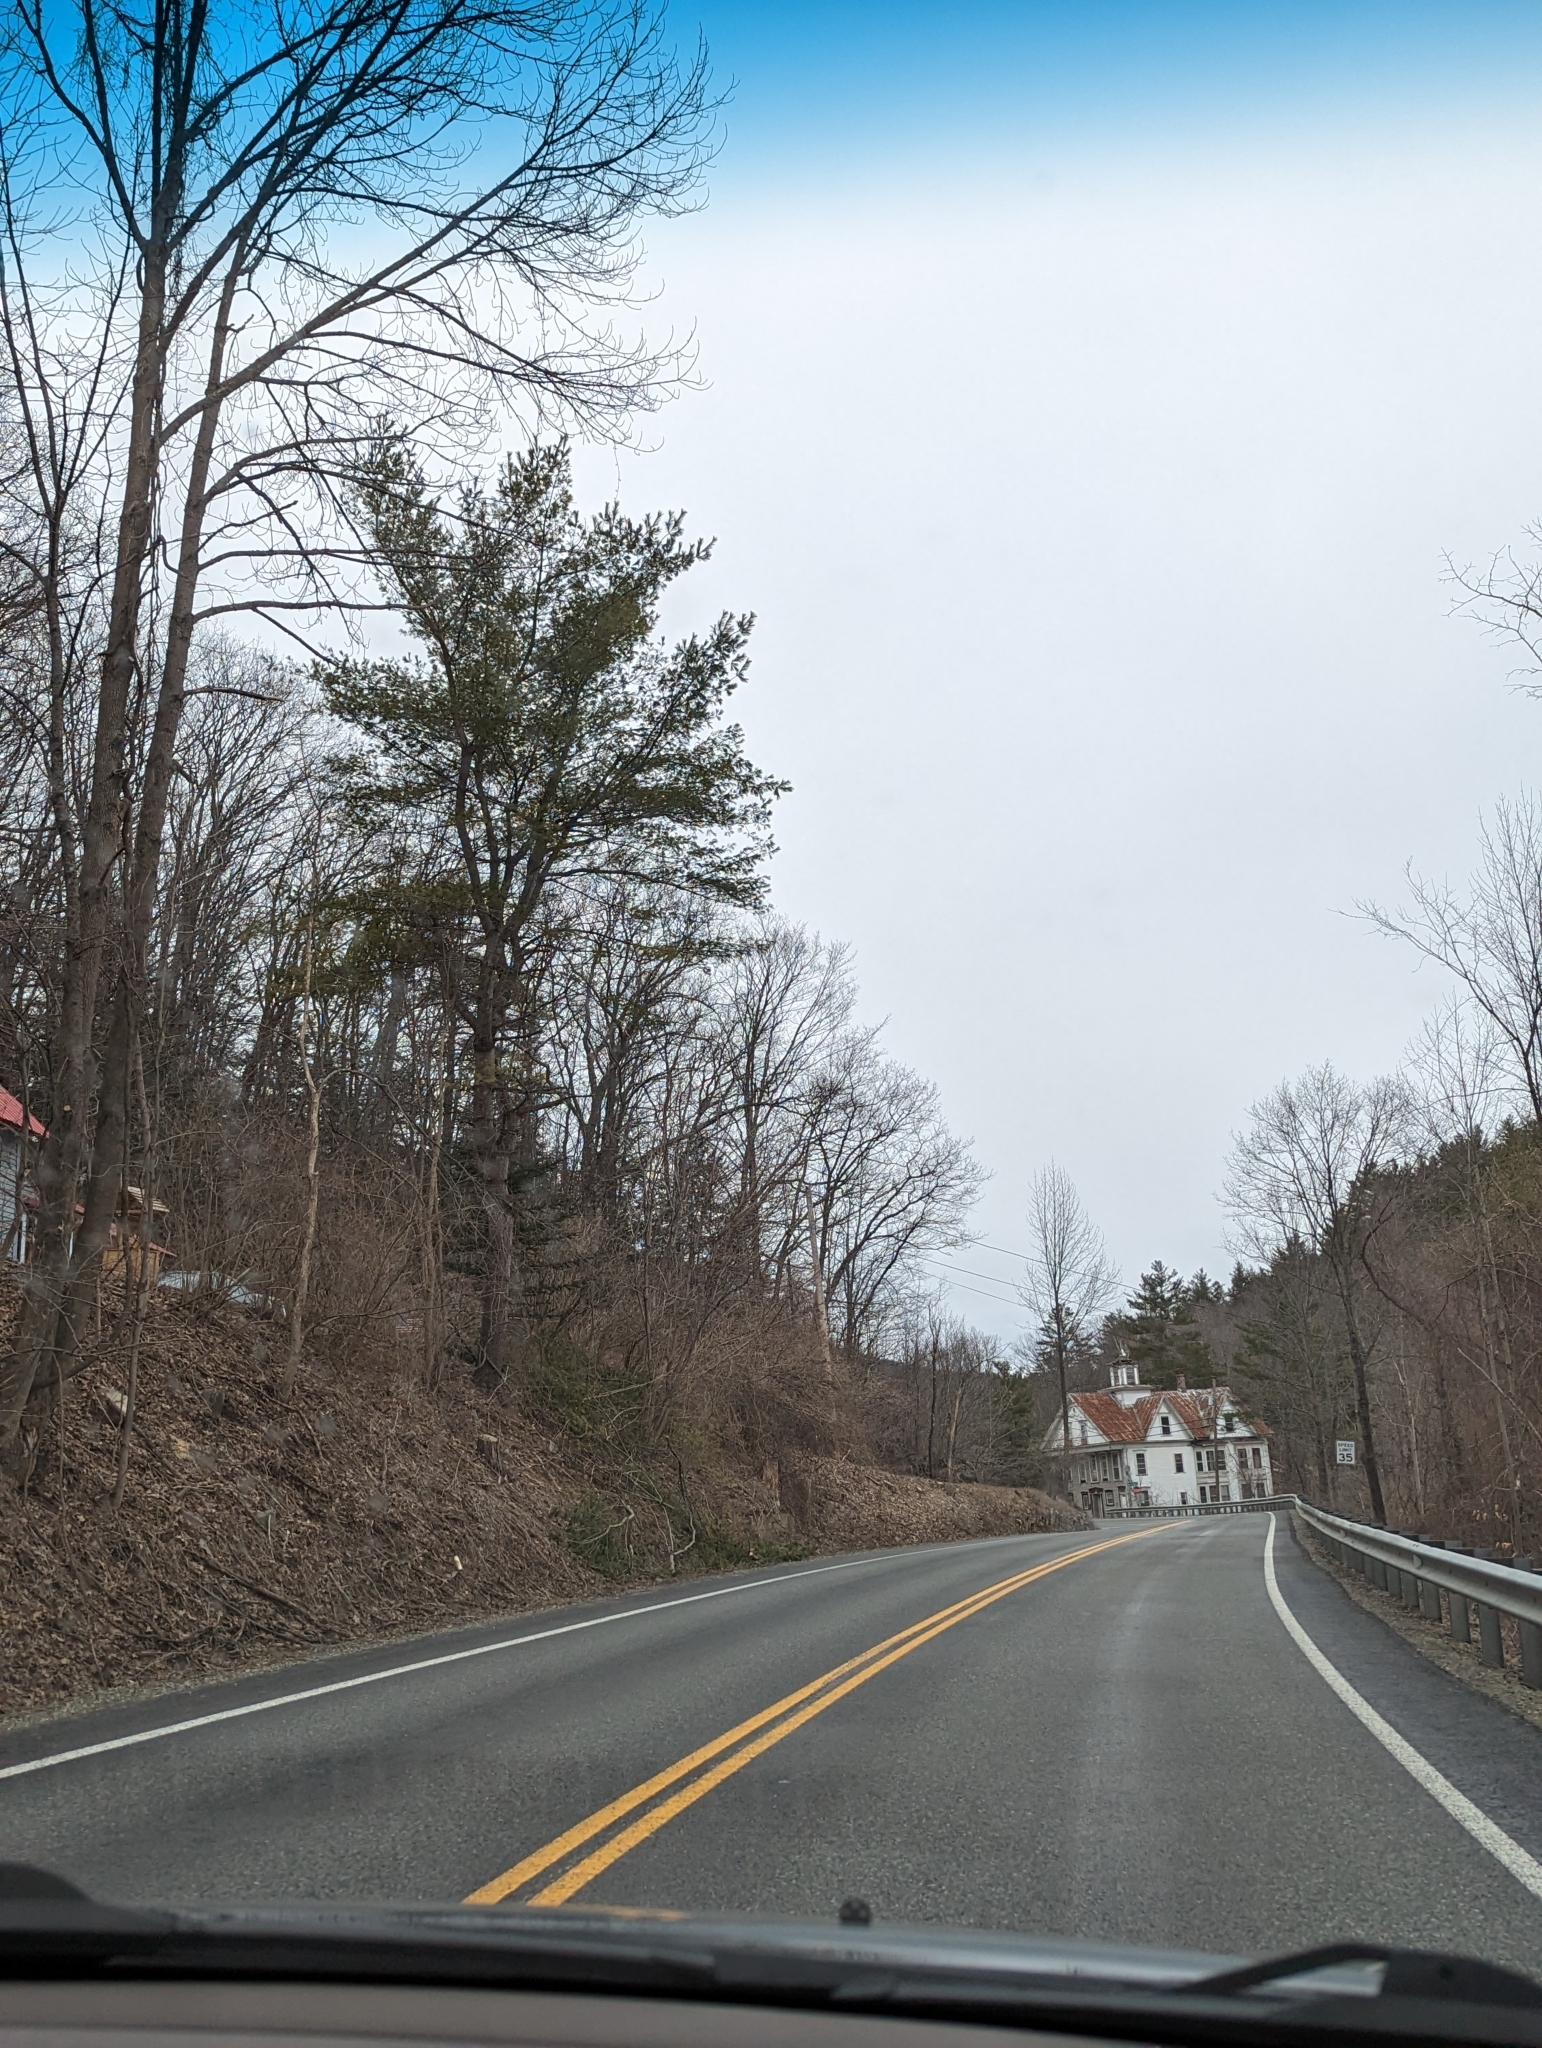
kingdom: Plantae
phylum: Tracheophyta
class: Pinopsida
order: Pinales
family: Pinaceae
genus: Pinus
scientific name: Pinus strobus
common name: Weymouth pine
